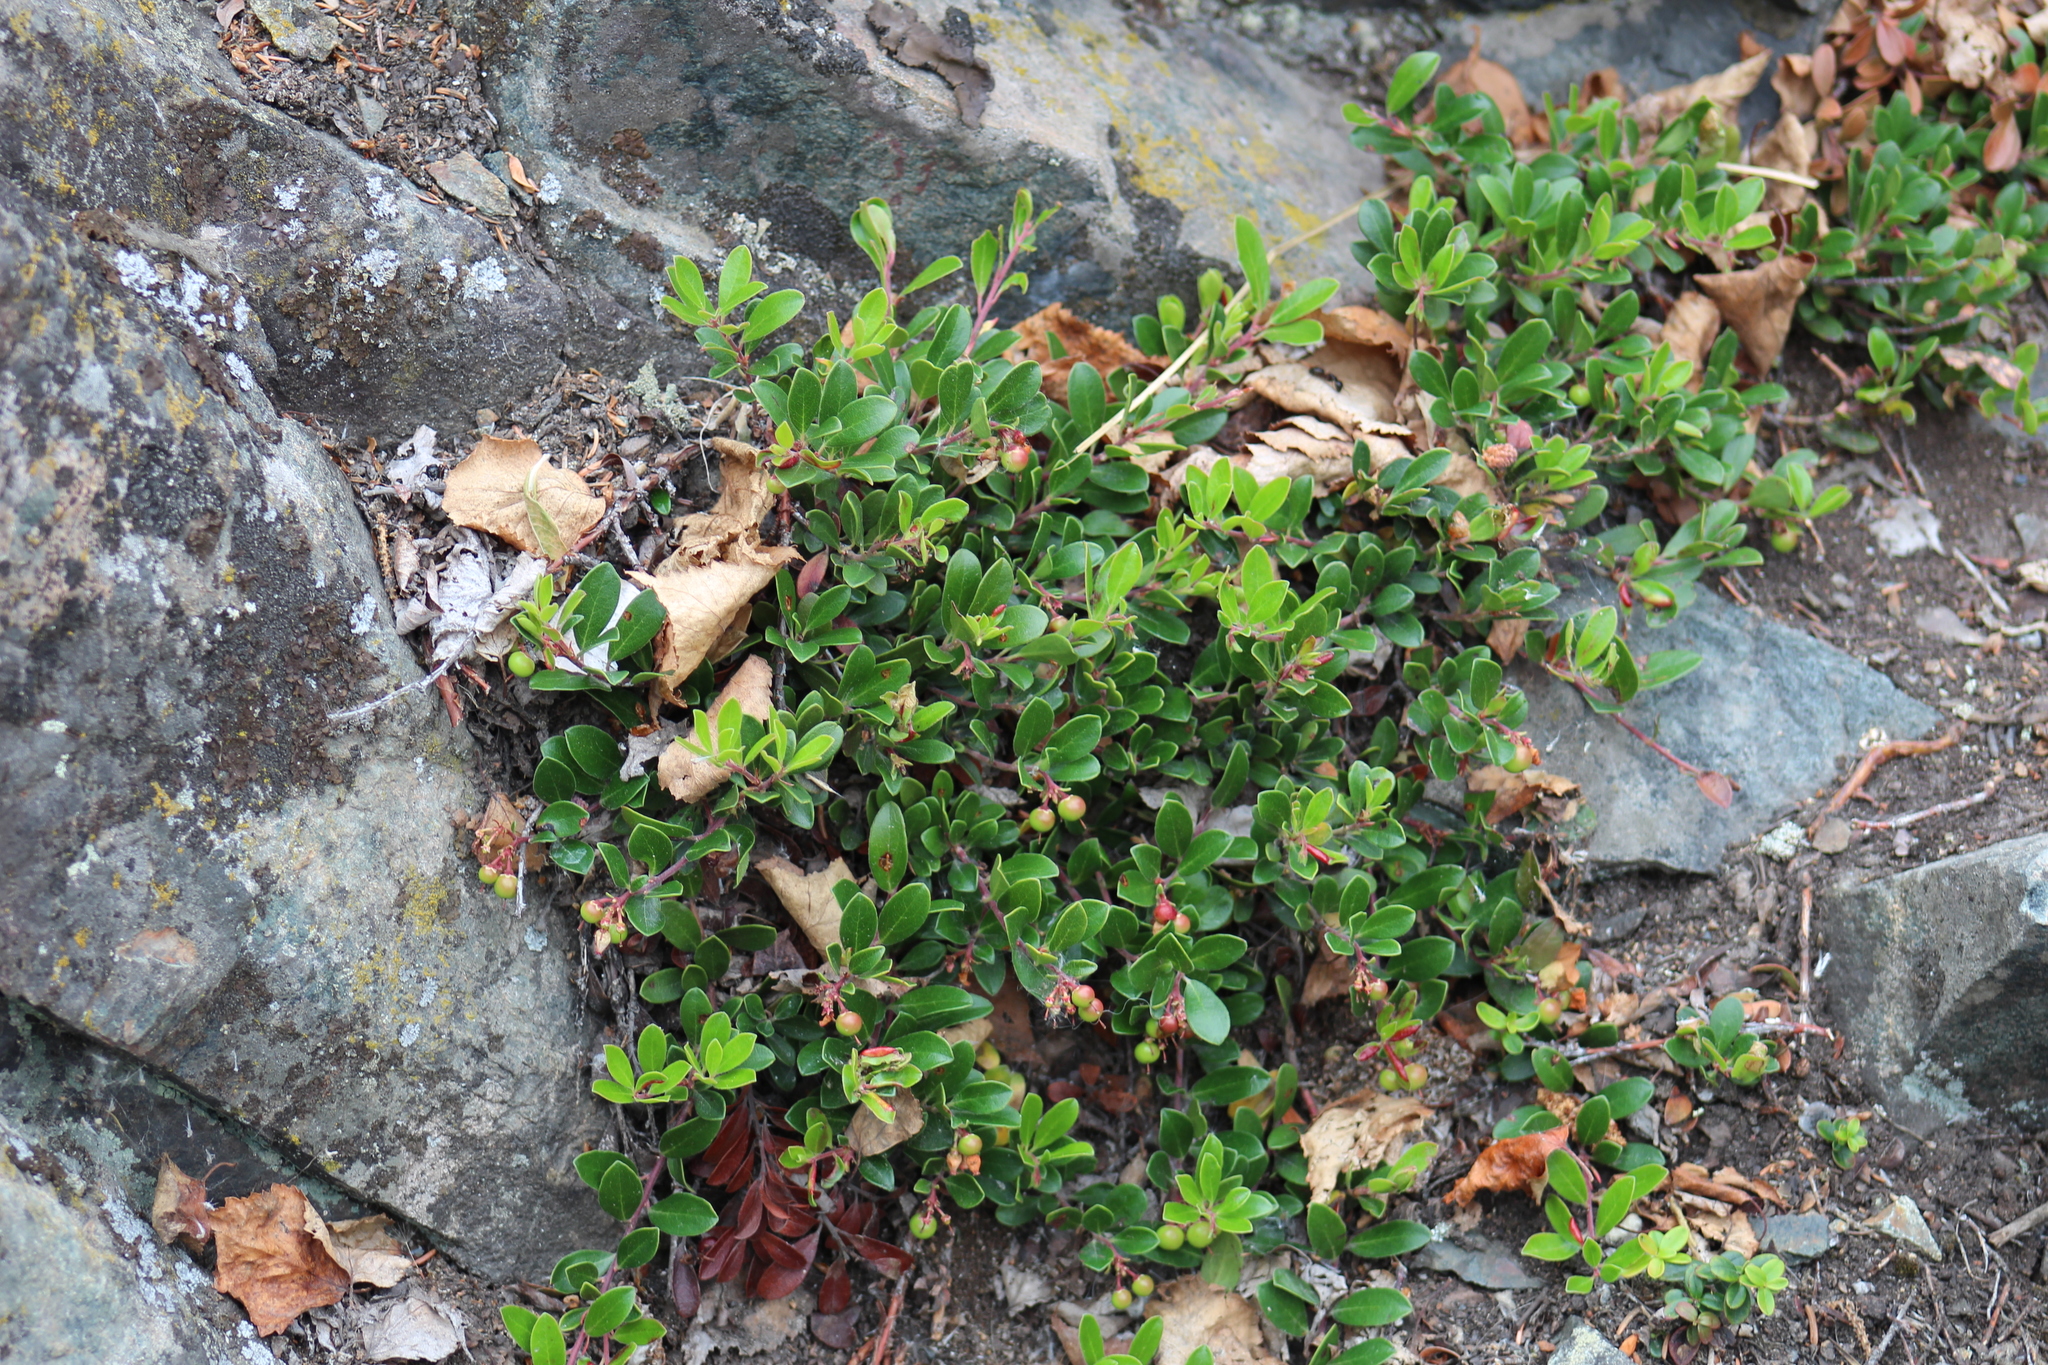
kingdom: Plantae
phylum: Tracheophyta
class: Magnoliopsida
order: Ericales
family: Ericaceae
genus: Arctostaphylos
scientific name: Arctostaphylos uva-ursi
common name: Bearberry
